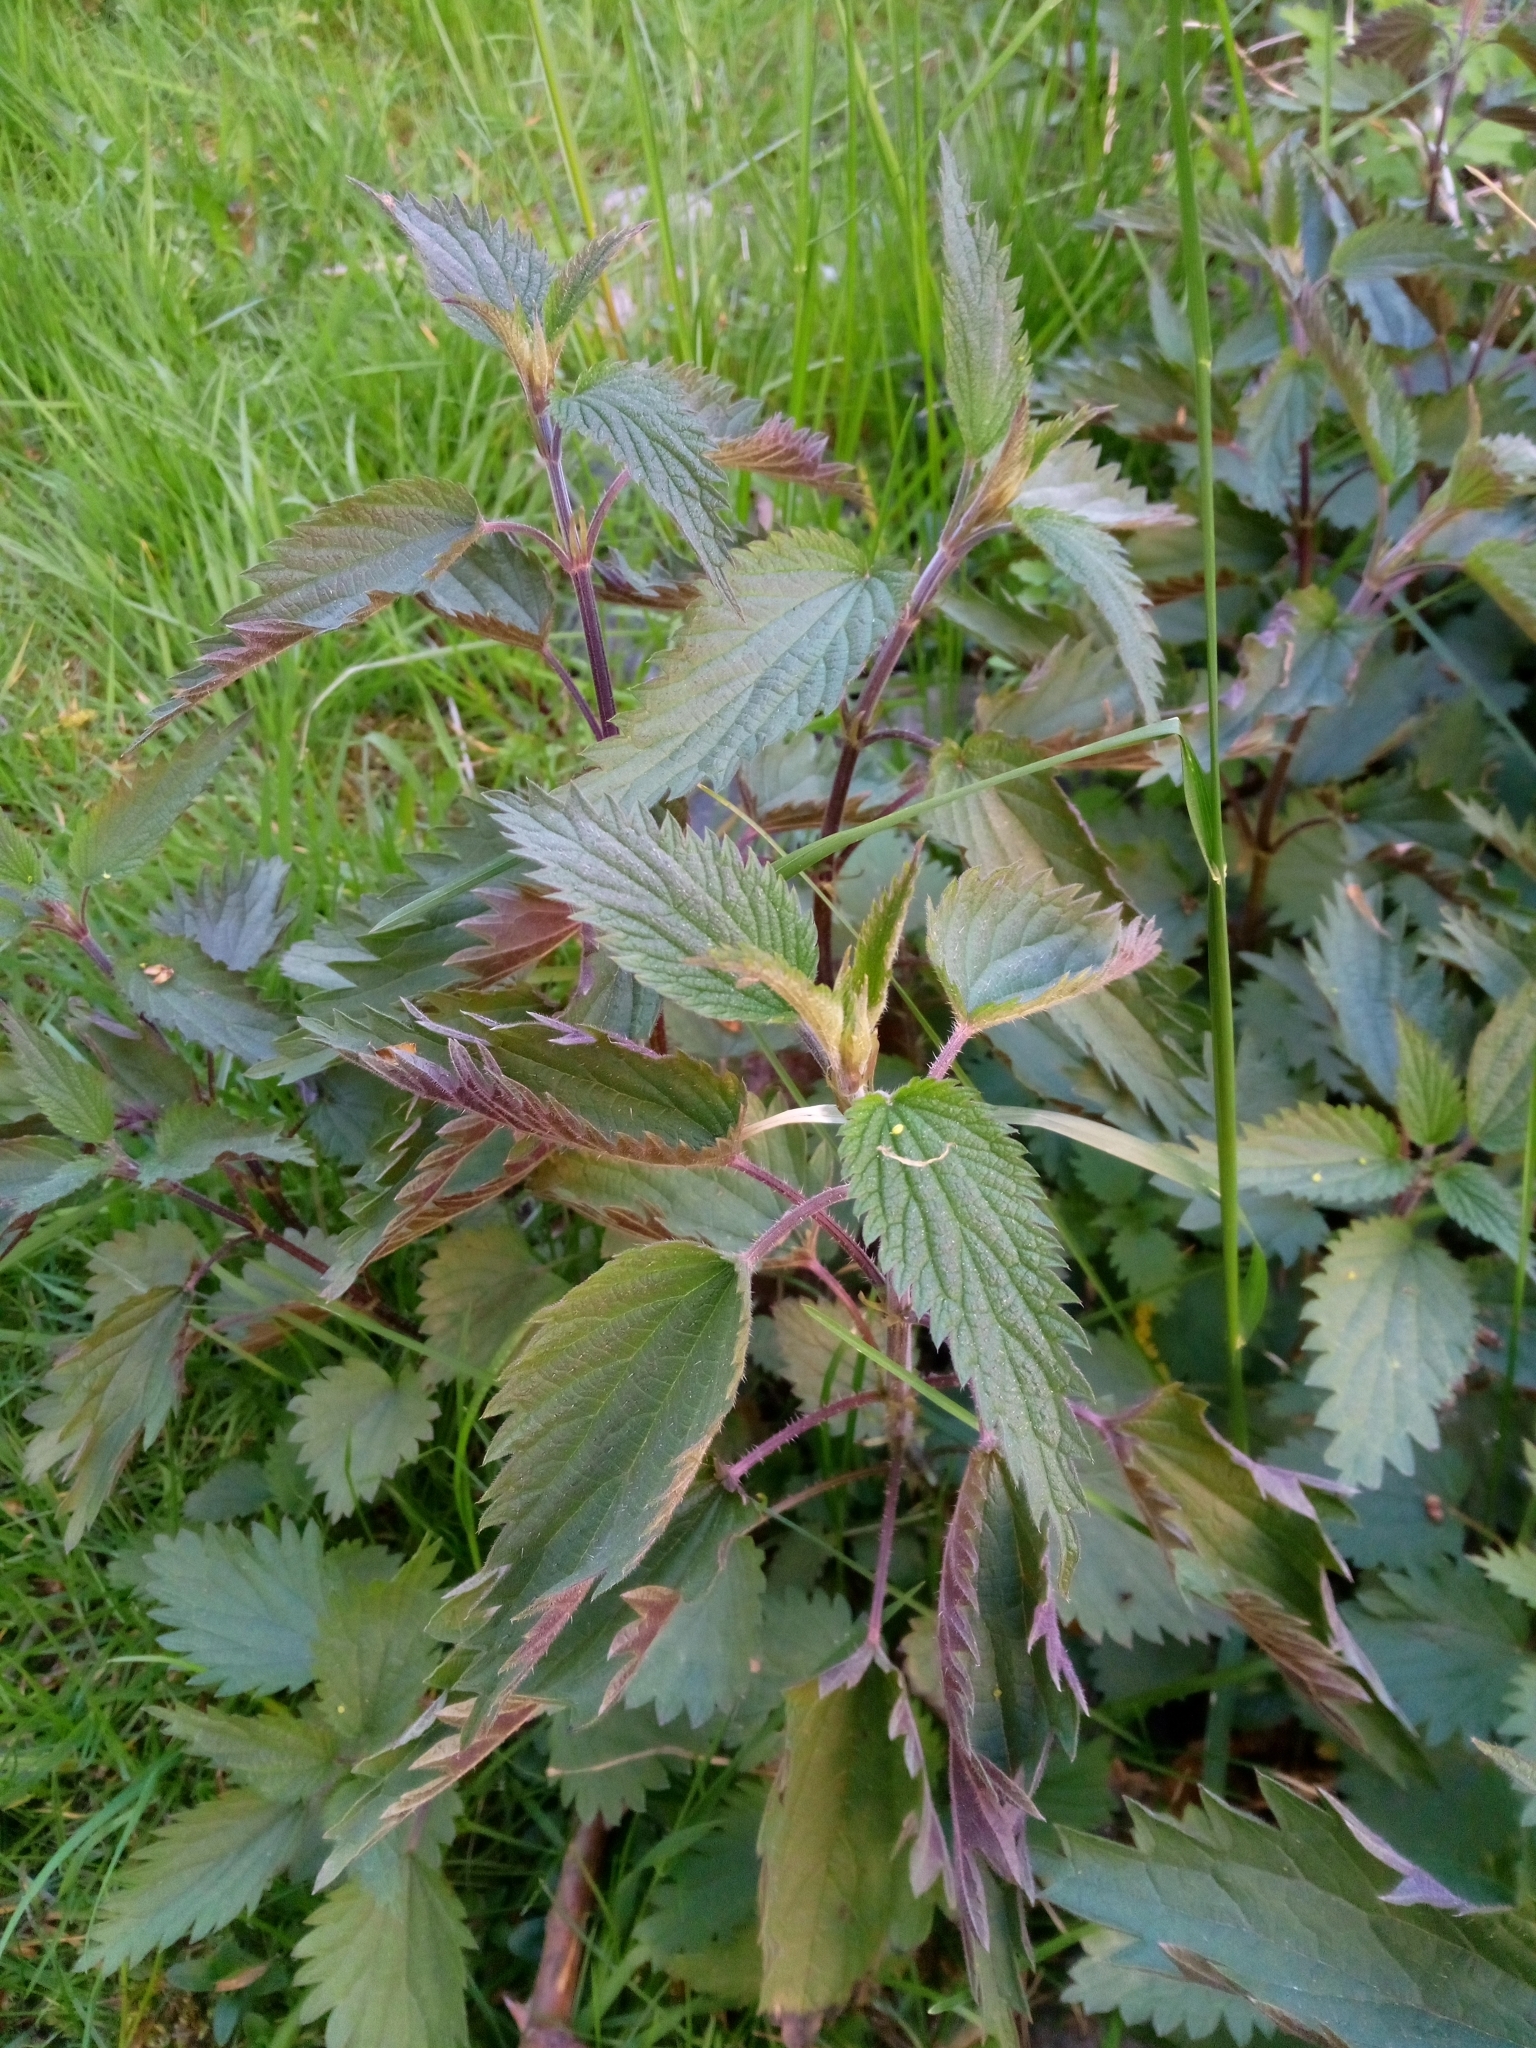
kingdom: Plantae
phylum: Tracheophyta
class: Magnoliopsida
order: Rosales
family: Urticaceae
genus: Urtica
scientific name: Urtica dioica
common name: Common nettle
